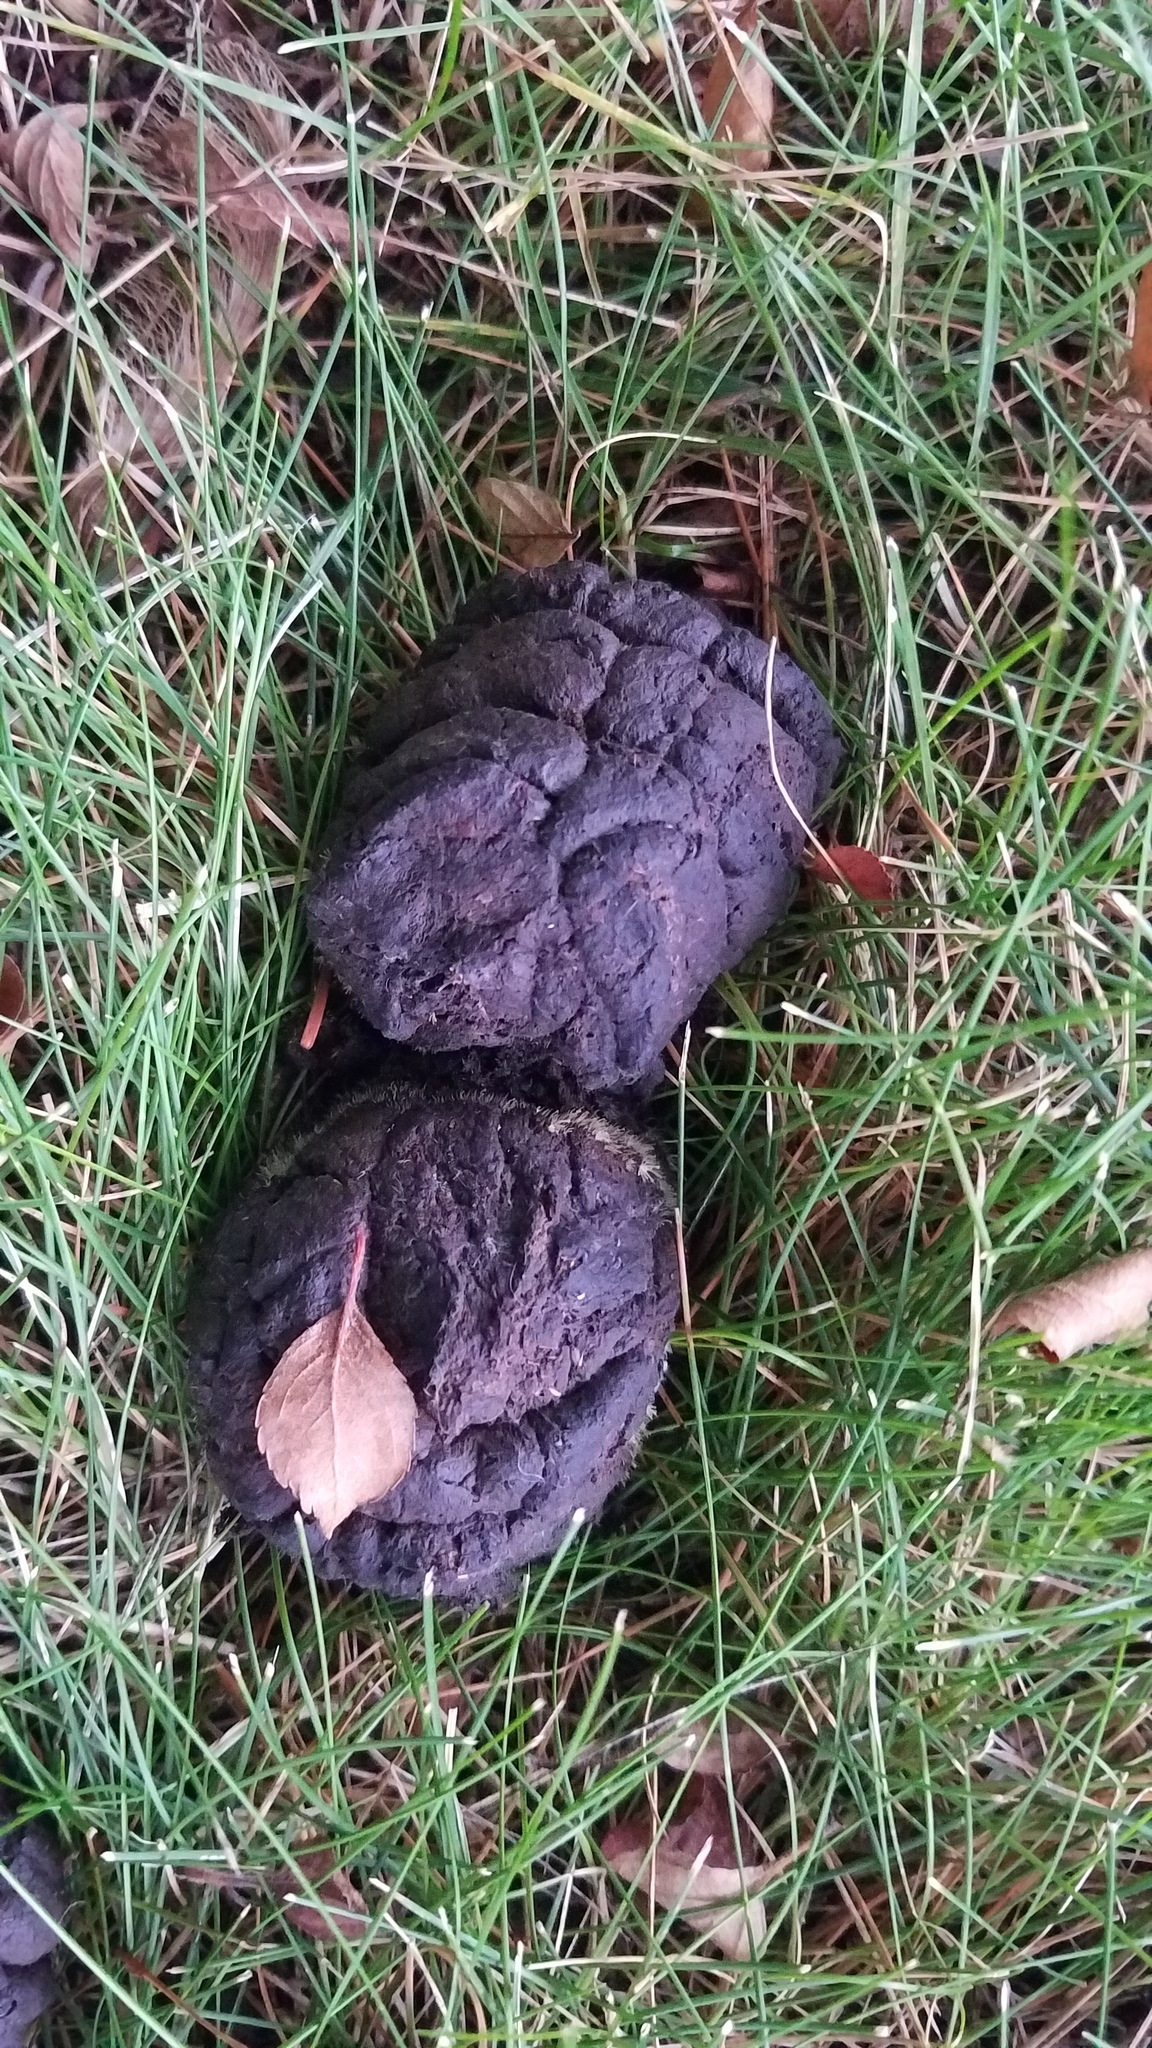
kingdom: Animalia
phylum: Chordata
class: Mammalia
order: Artiodactyla
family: Cervidae
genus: Odocoileus
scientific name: Odocoileus virginianus
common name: White-tailed deer
